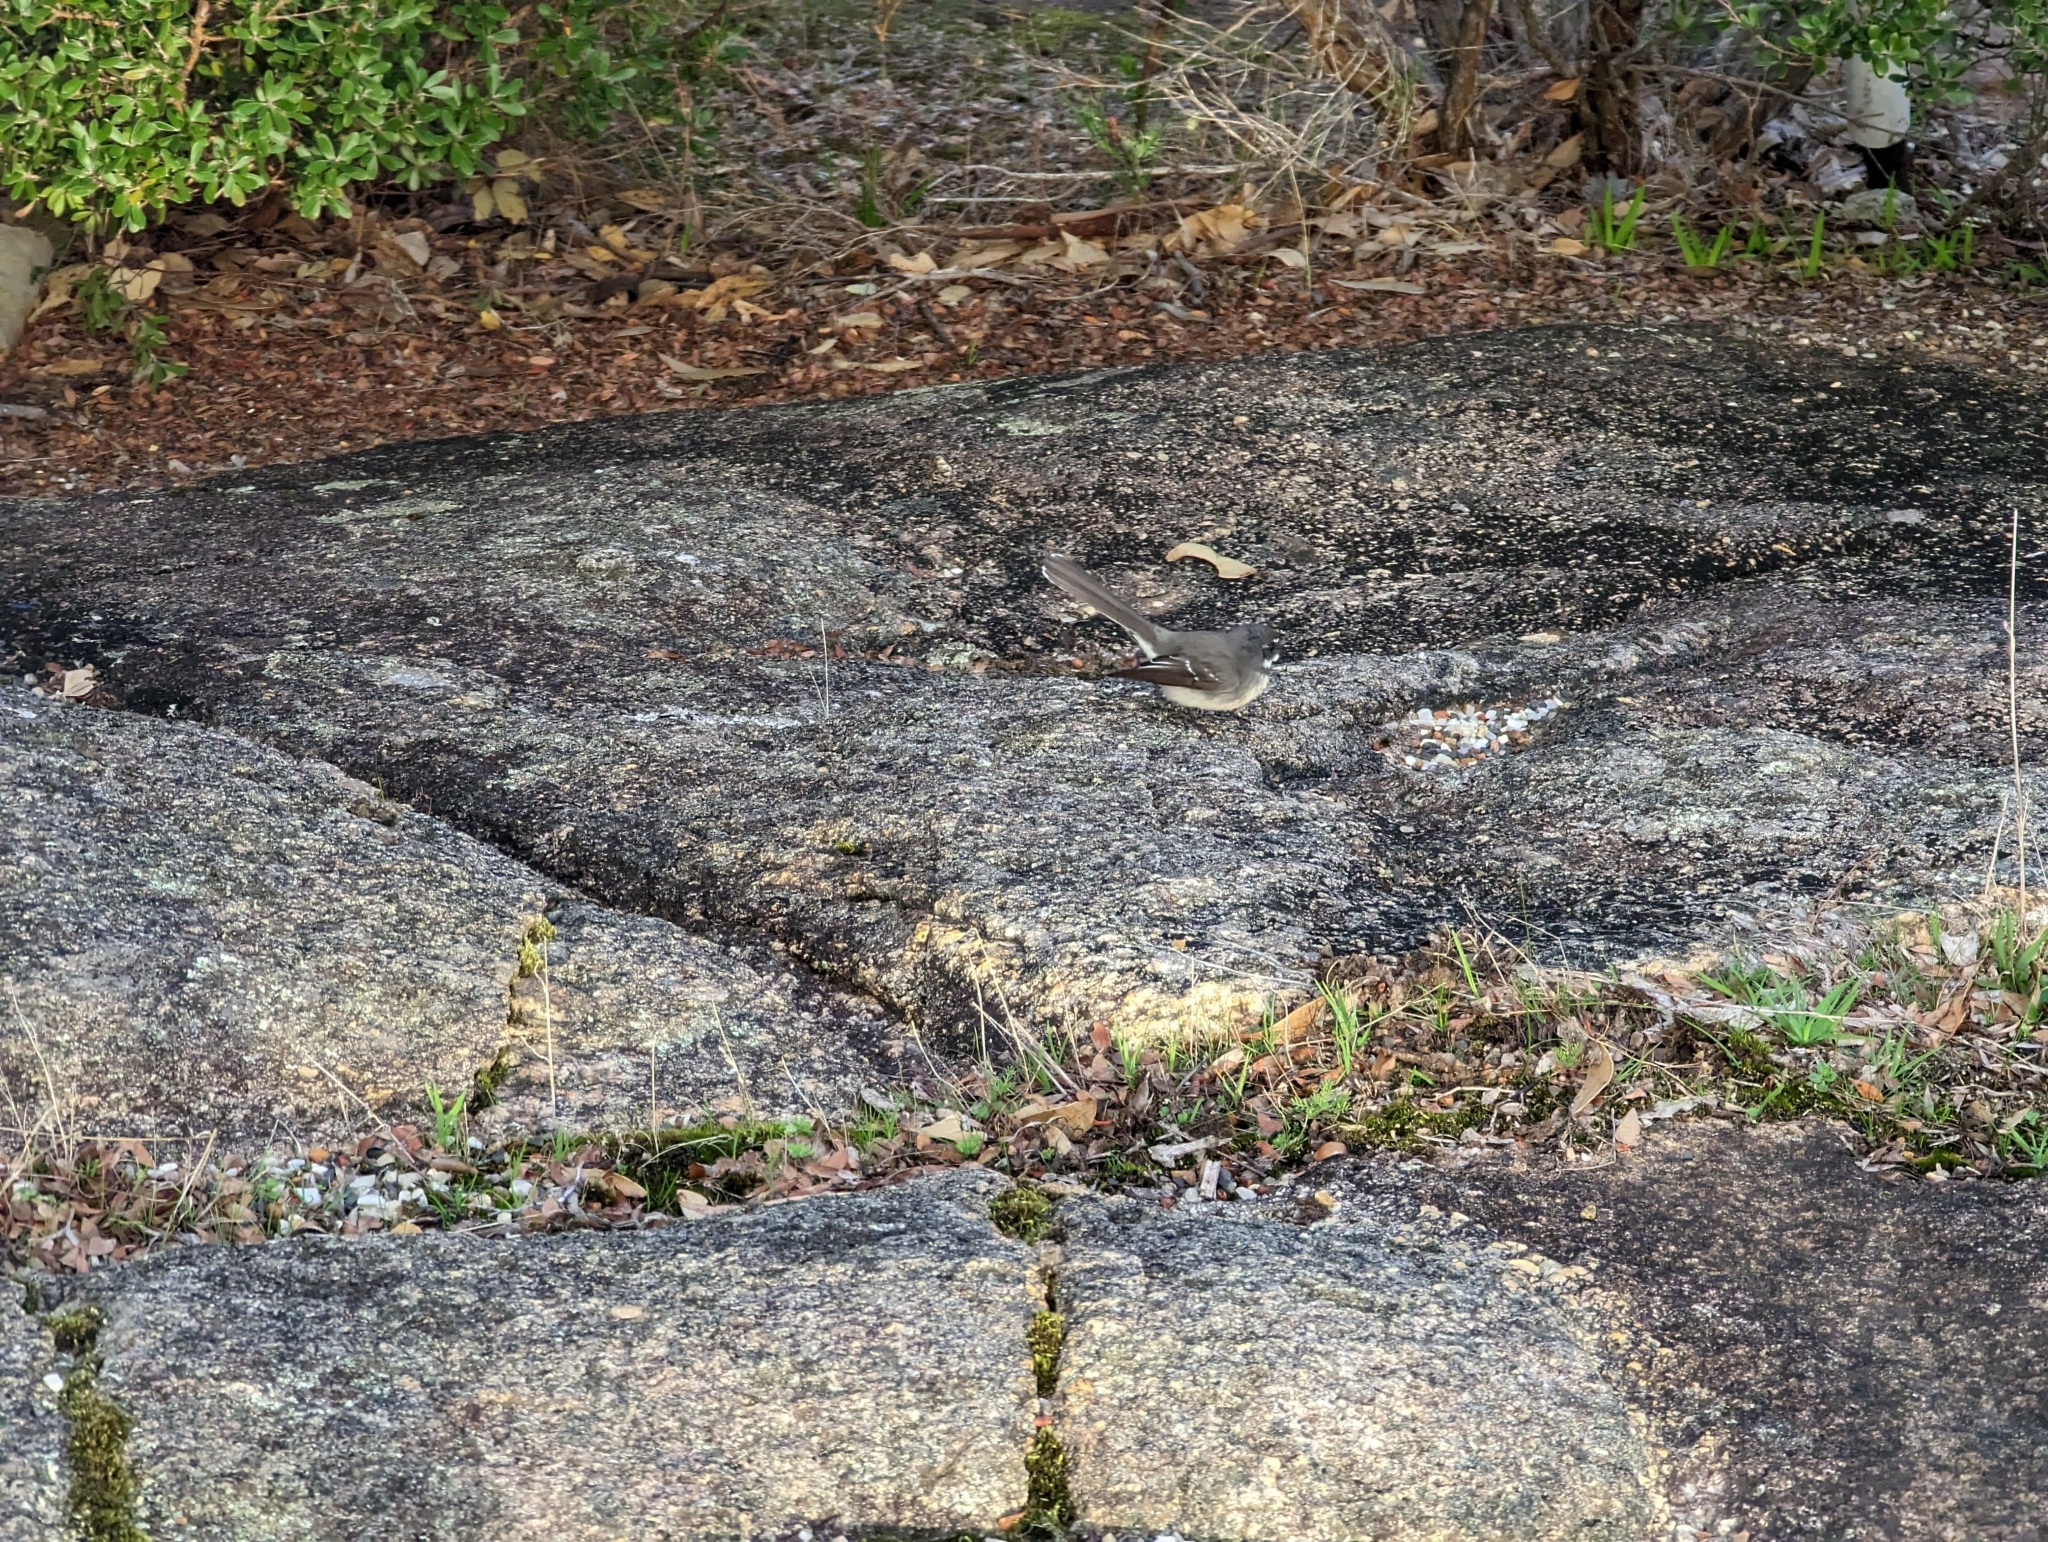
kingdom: Animalia
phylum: Chordata
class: Aves
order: Passeriformes
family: Rhipiduridae
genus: Rhipidura
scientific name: Rhipidura albiscapa
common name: Grey fantail
